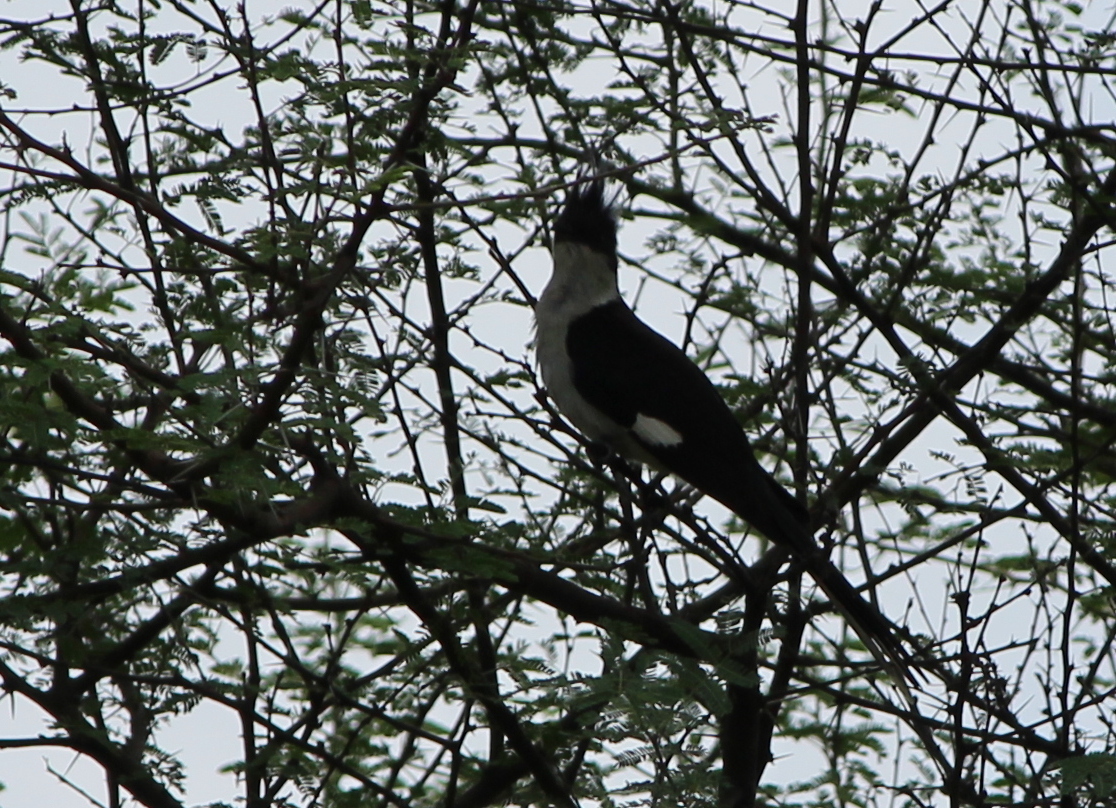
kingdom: Animalia
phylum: Chordata
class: Aves
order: Cuculiformes
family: Cuculidae
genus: Clamator
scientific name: Clamator jacobinus
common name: Jacobin cuckoo
